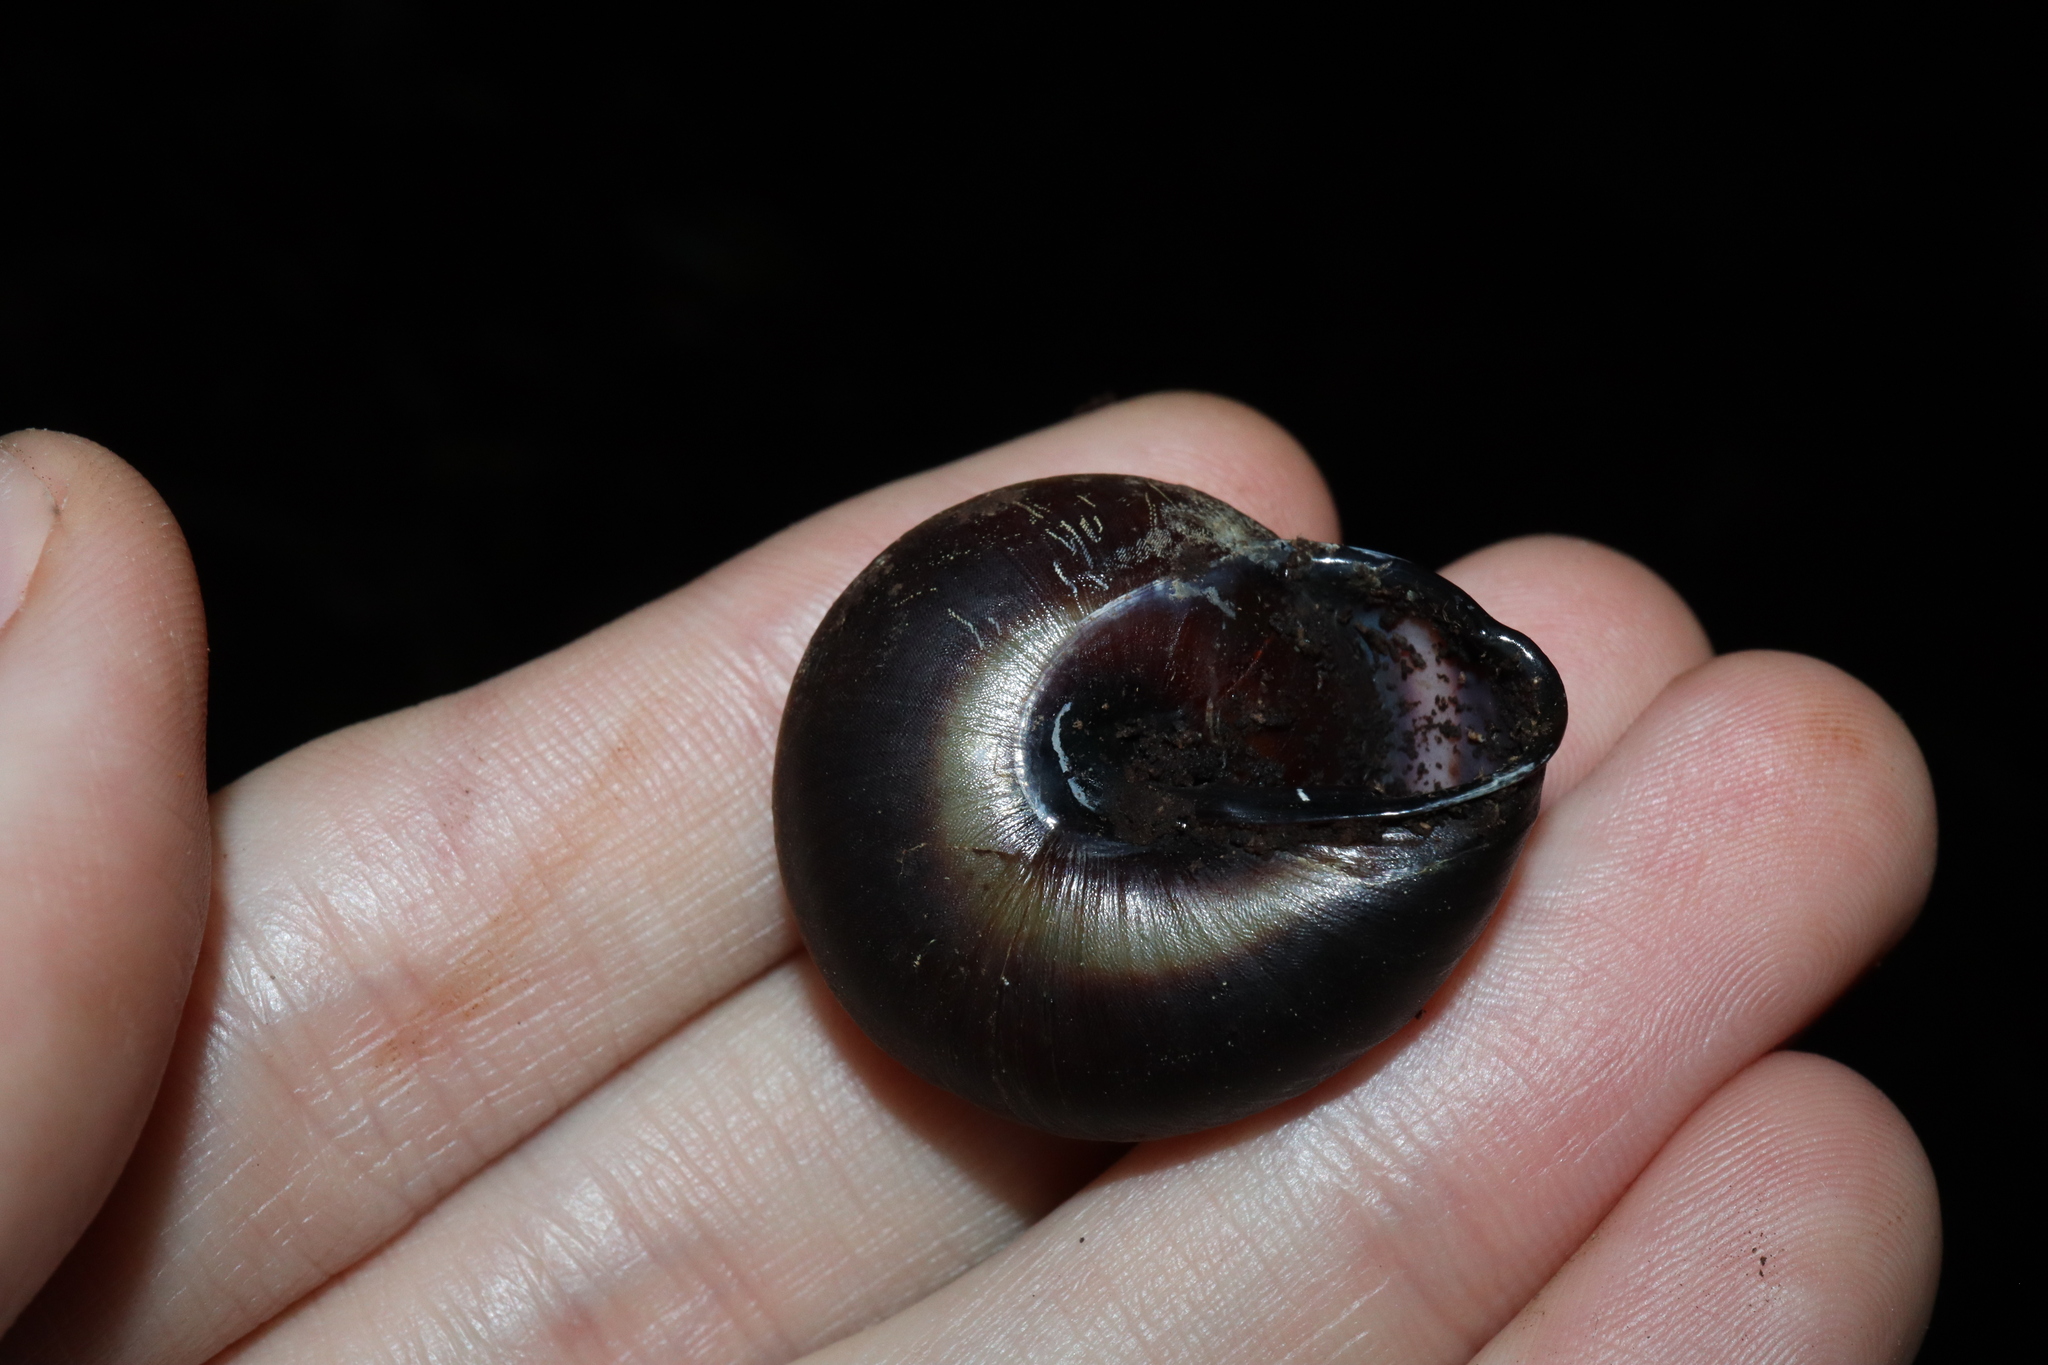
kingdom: Animalia
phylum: Mollusca
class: Gastropoda
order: Stylommatophora
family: Camaenidae
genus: Thersites
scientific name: Thersites novaehollandiae
